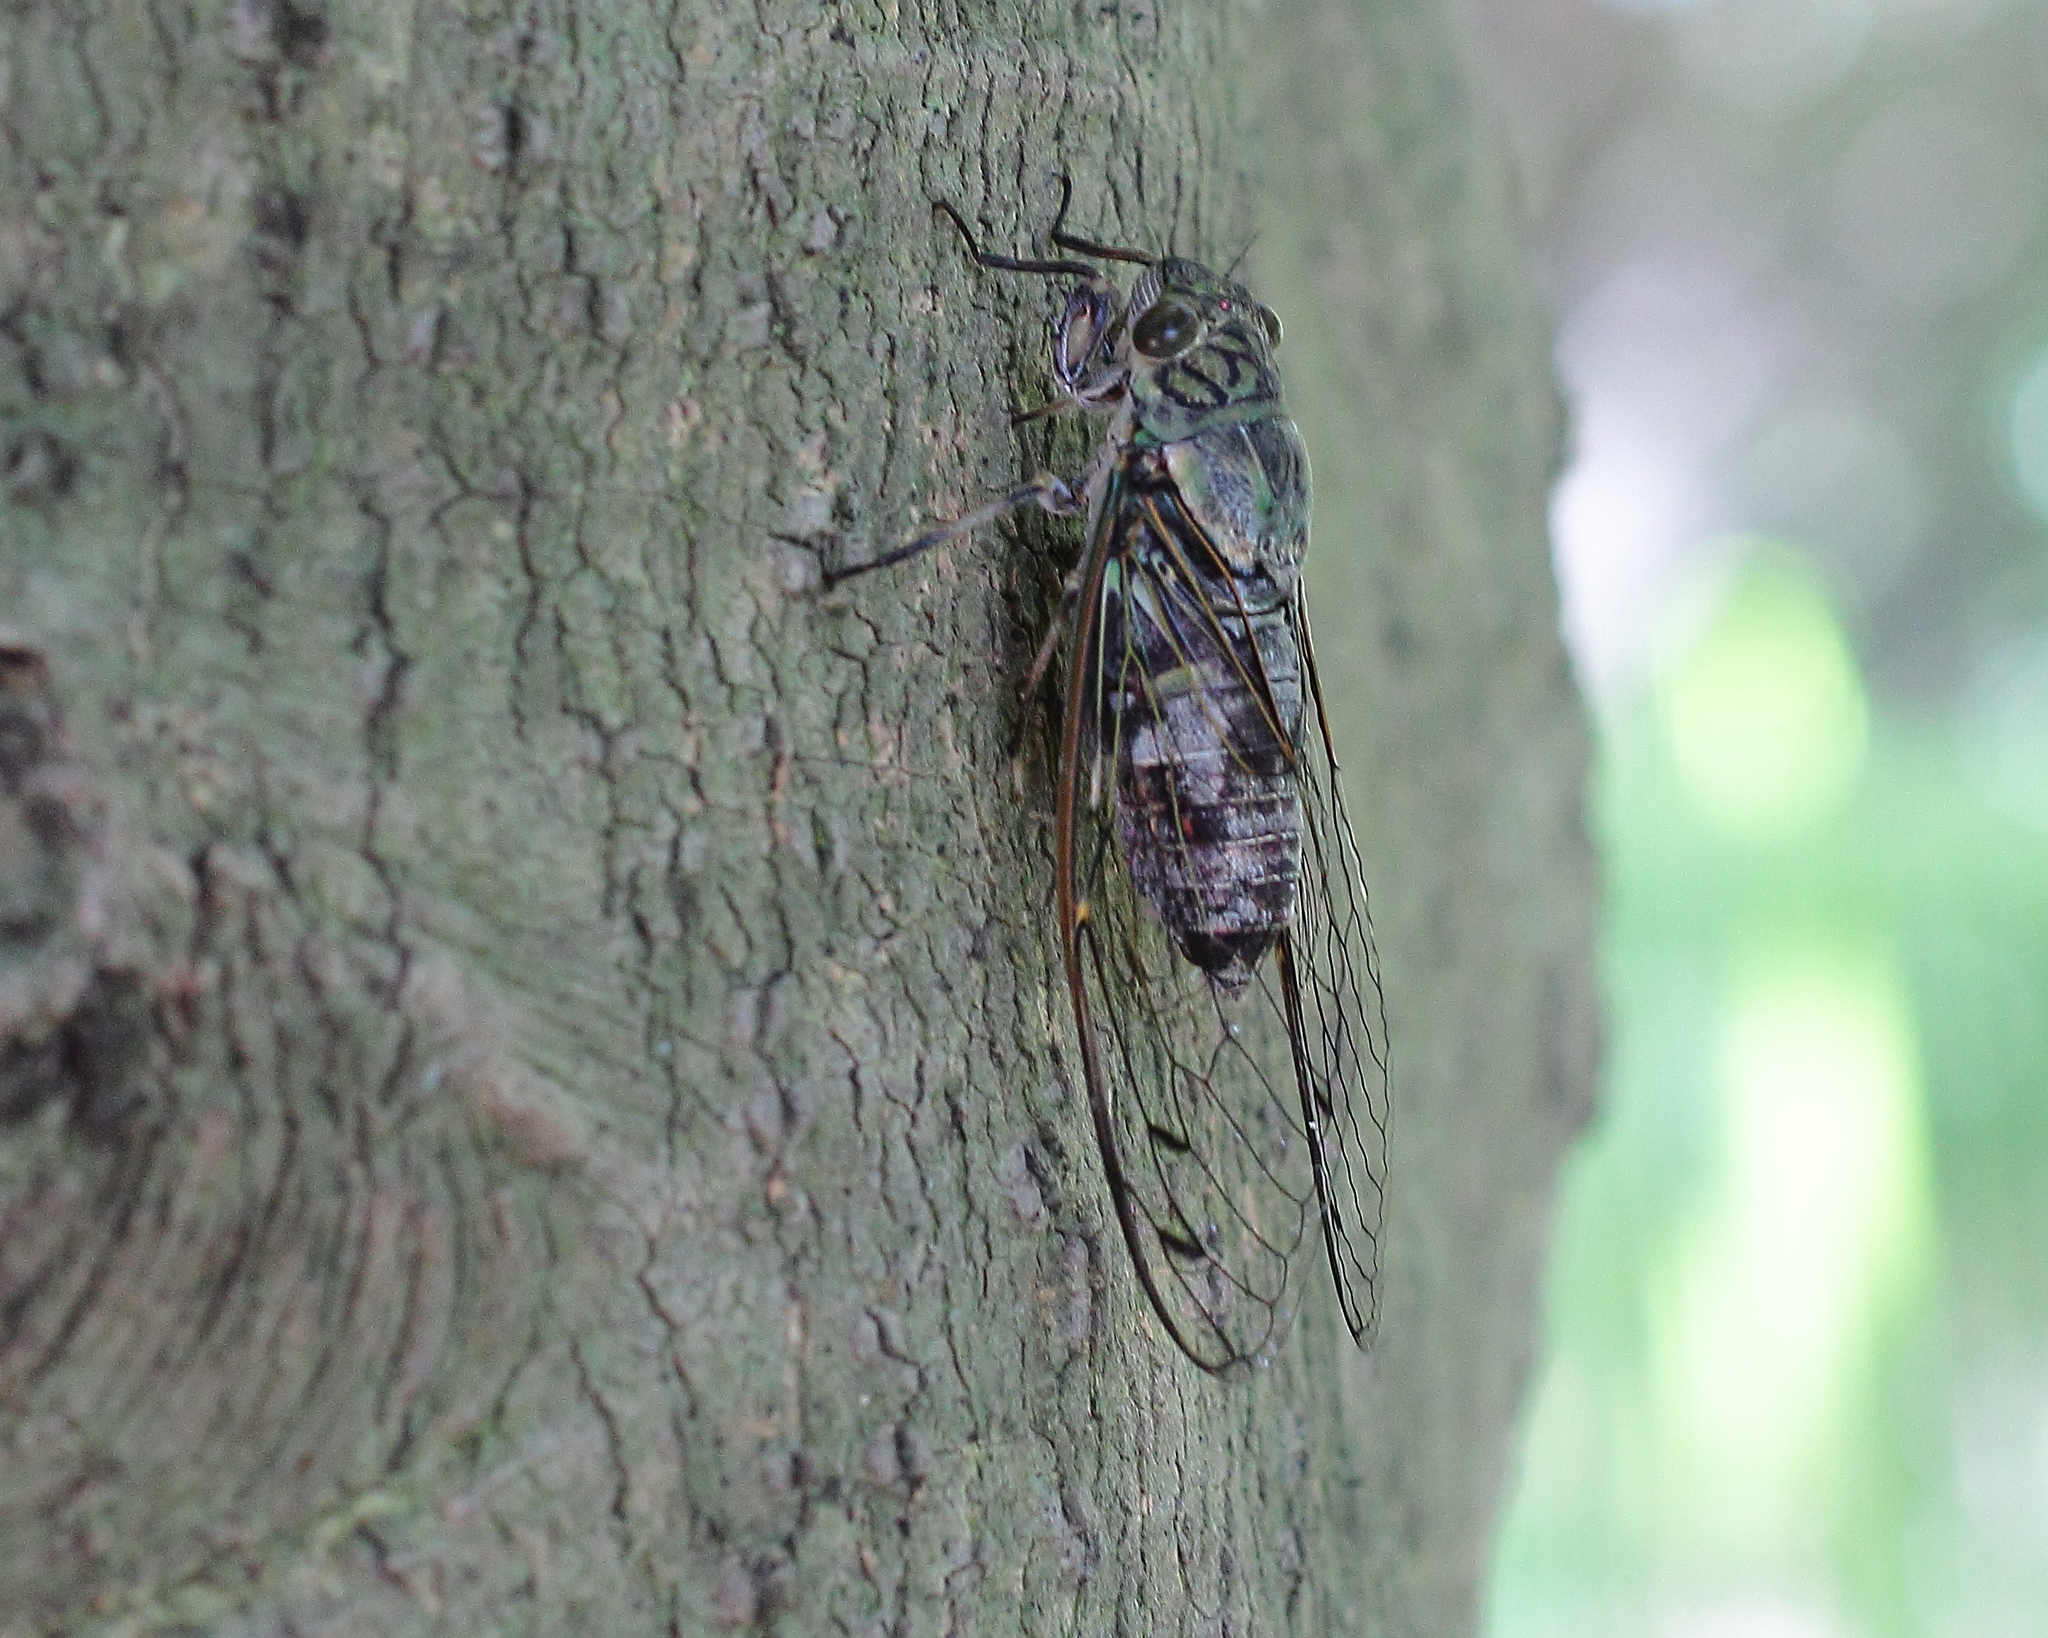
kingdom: Animalia
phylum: Arthropoda
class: Insecta
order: Hemiptera
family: Cicadidae
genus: Meimuna
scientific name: Meimuna opalifera
